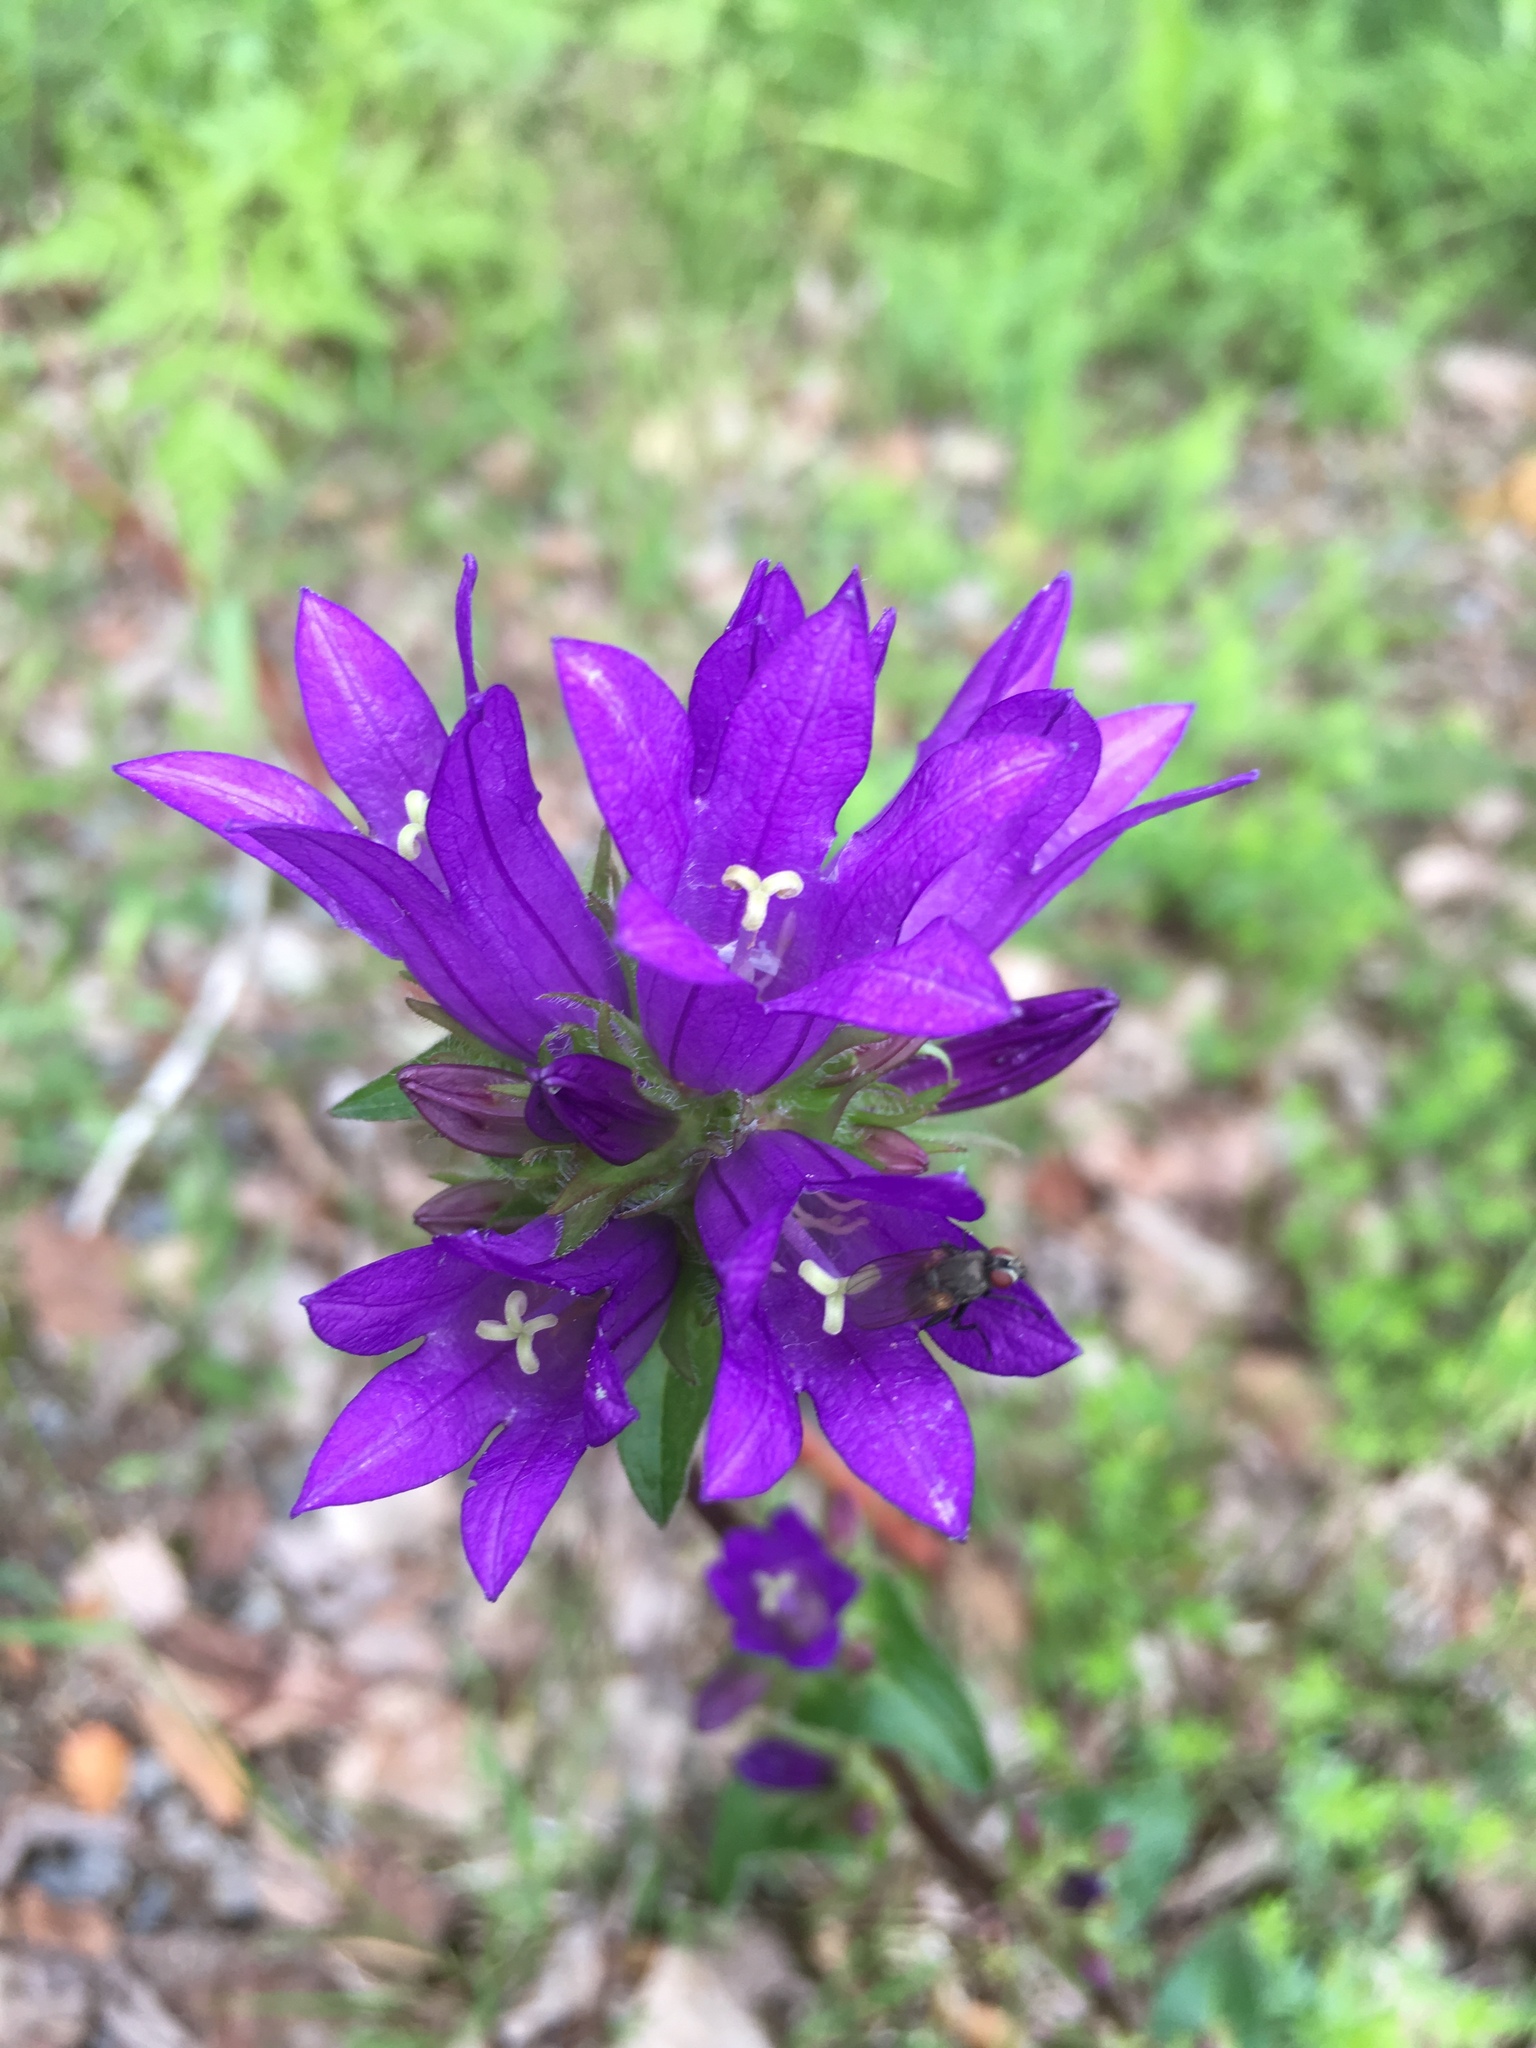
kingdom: Plantae
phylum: Tracheophyta
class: Magnoliopsida
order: Asterales
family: Campanulaceae
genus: Campanula
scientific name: Campanula glomerata
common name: Clustered bellflower
